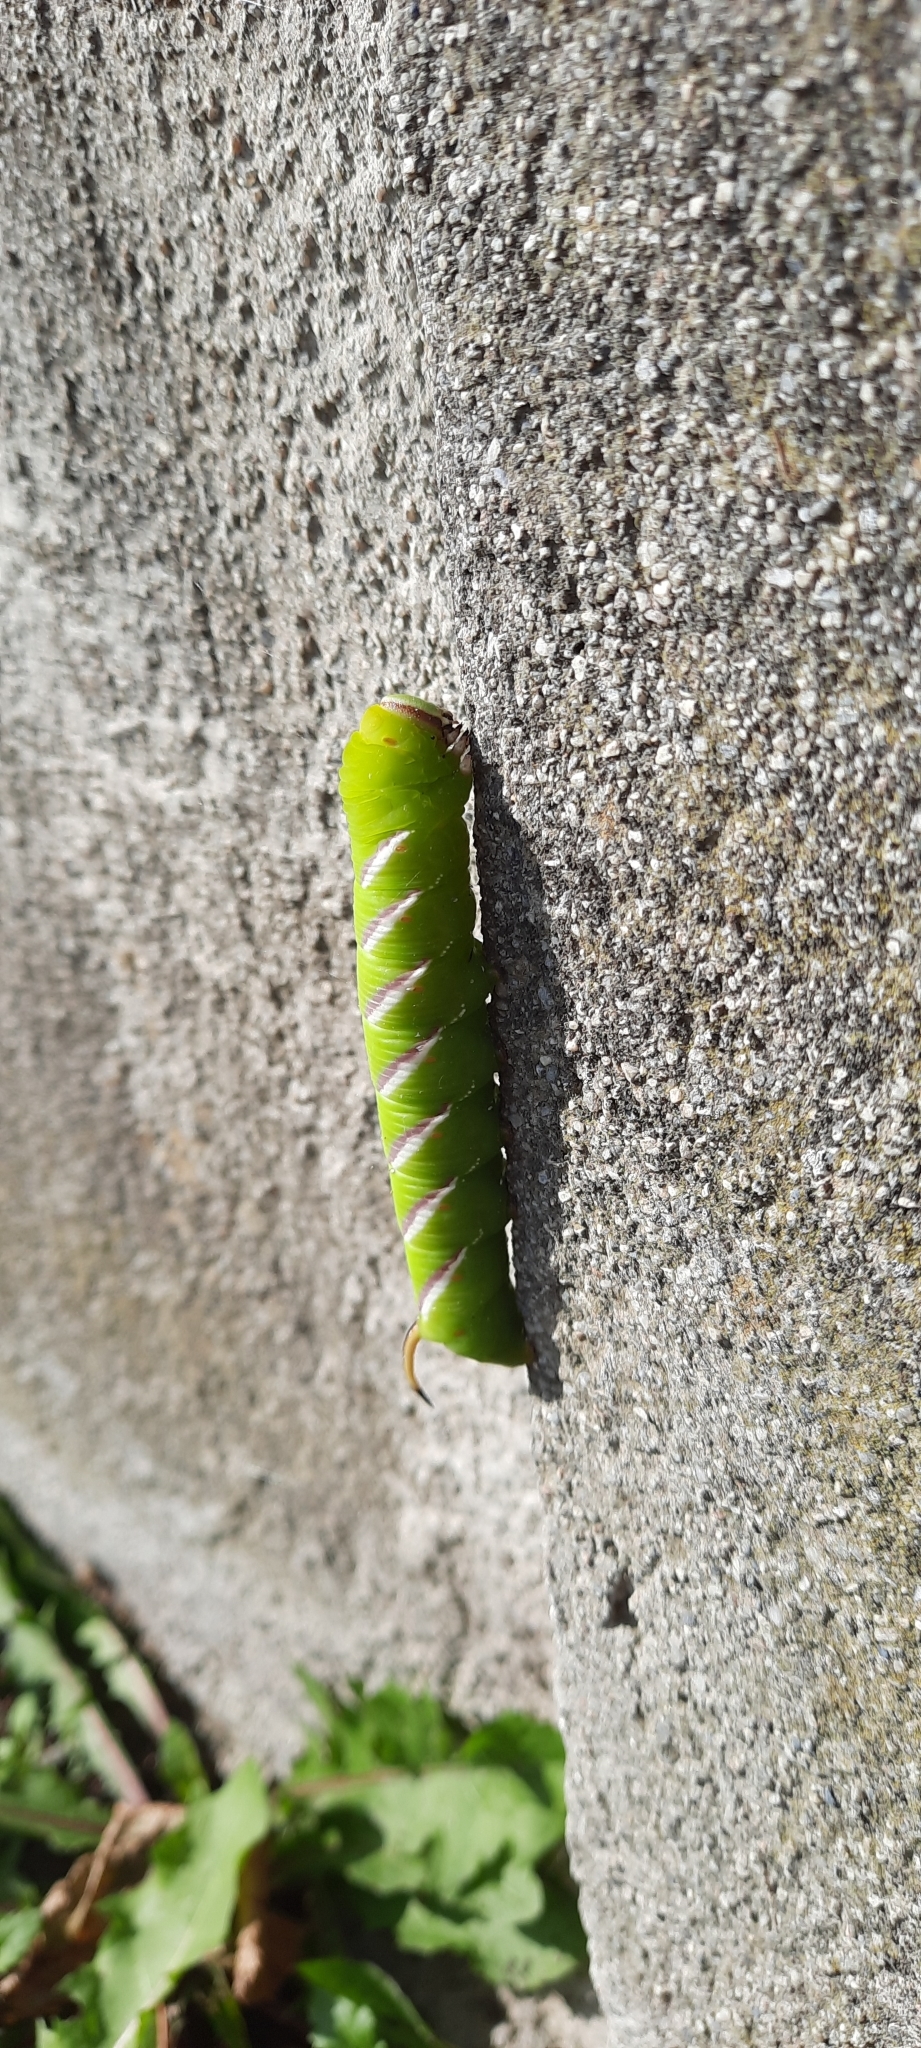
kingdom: Animalia
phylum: Arthropoda
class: Insecta
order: Lepidoptera
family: Sphingidae
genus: Sphinx
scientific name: Sphinx ligustri
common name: Privet hawk-moth
